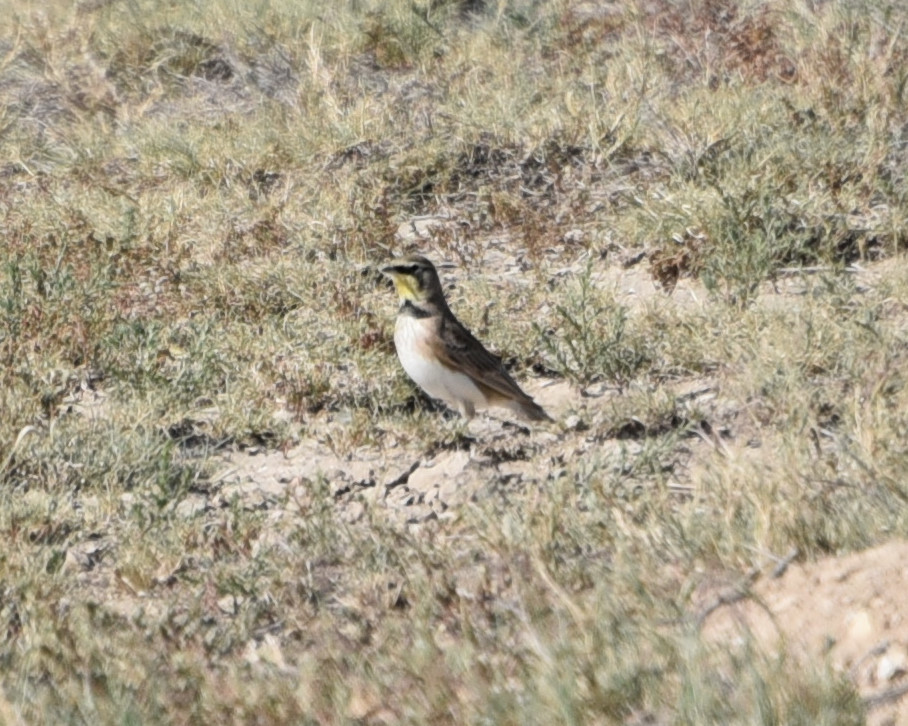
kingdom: Animalia
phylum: Chordata
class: Aves
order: Passeriformes
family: Alaudidae
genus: Eremophila
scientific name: Eremophila alpestris
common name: Horned lark
